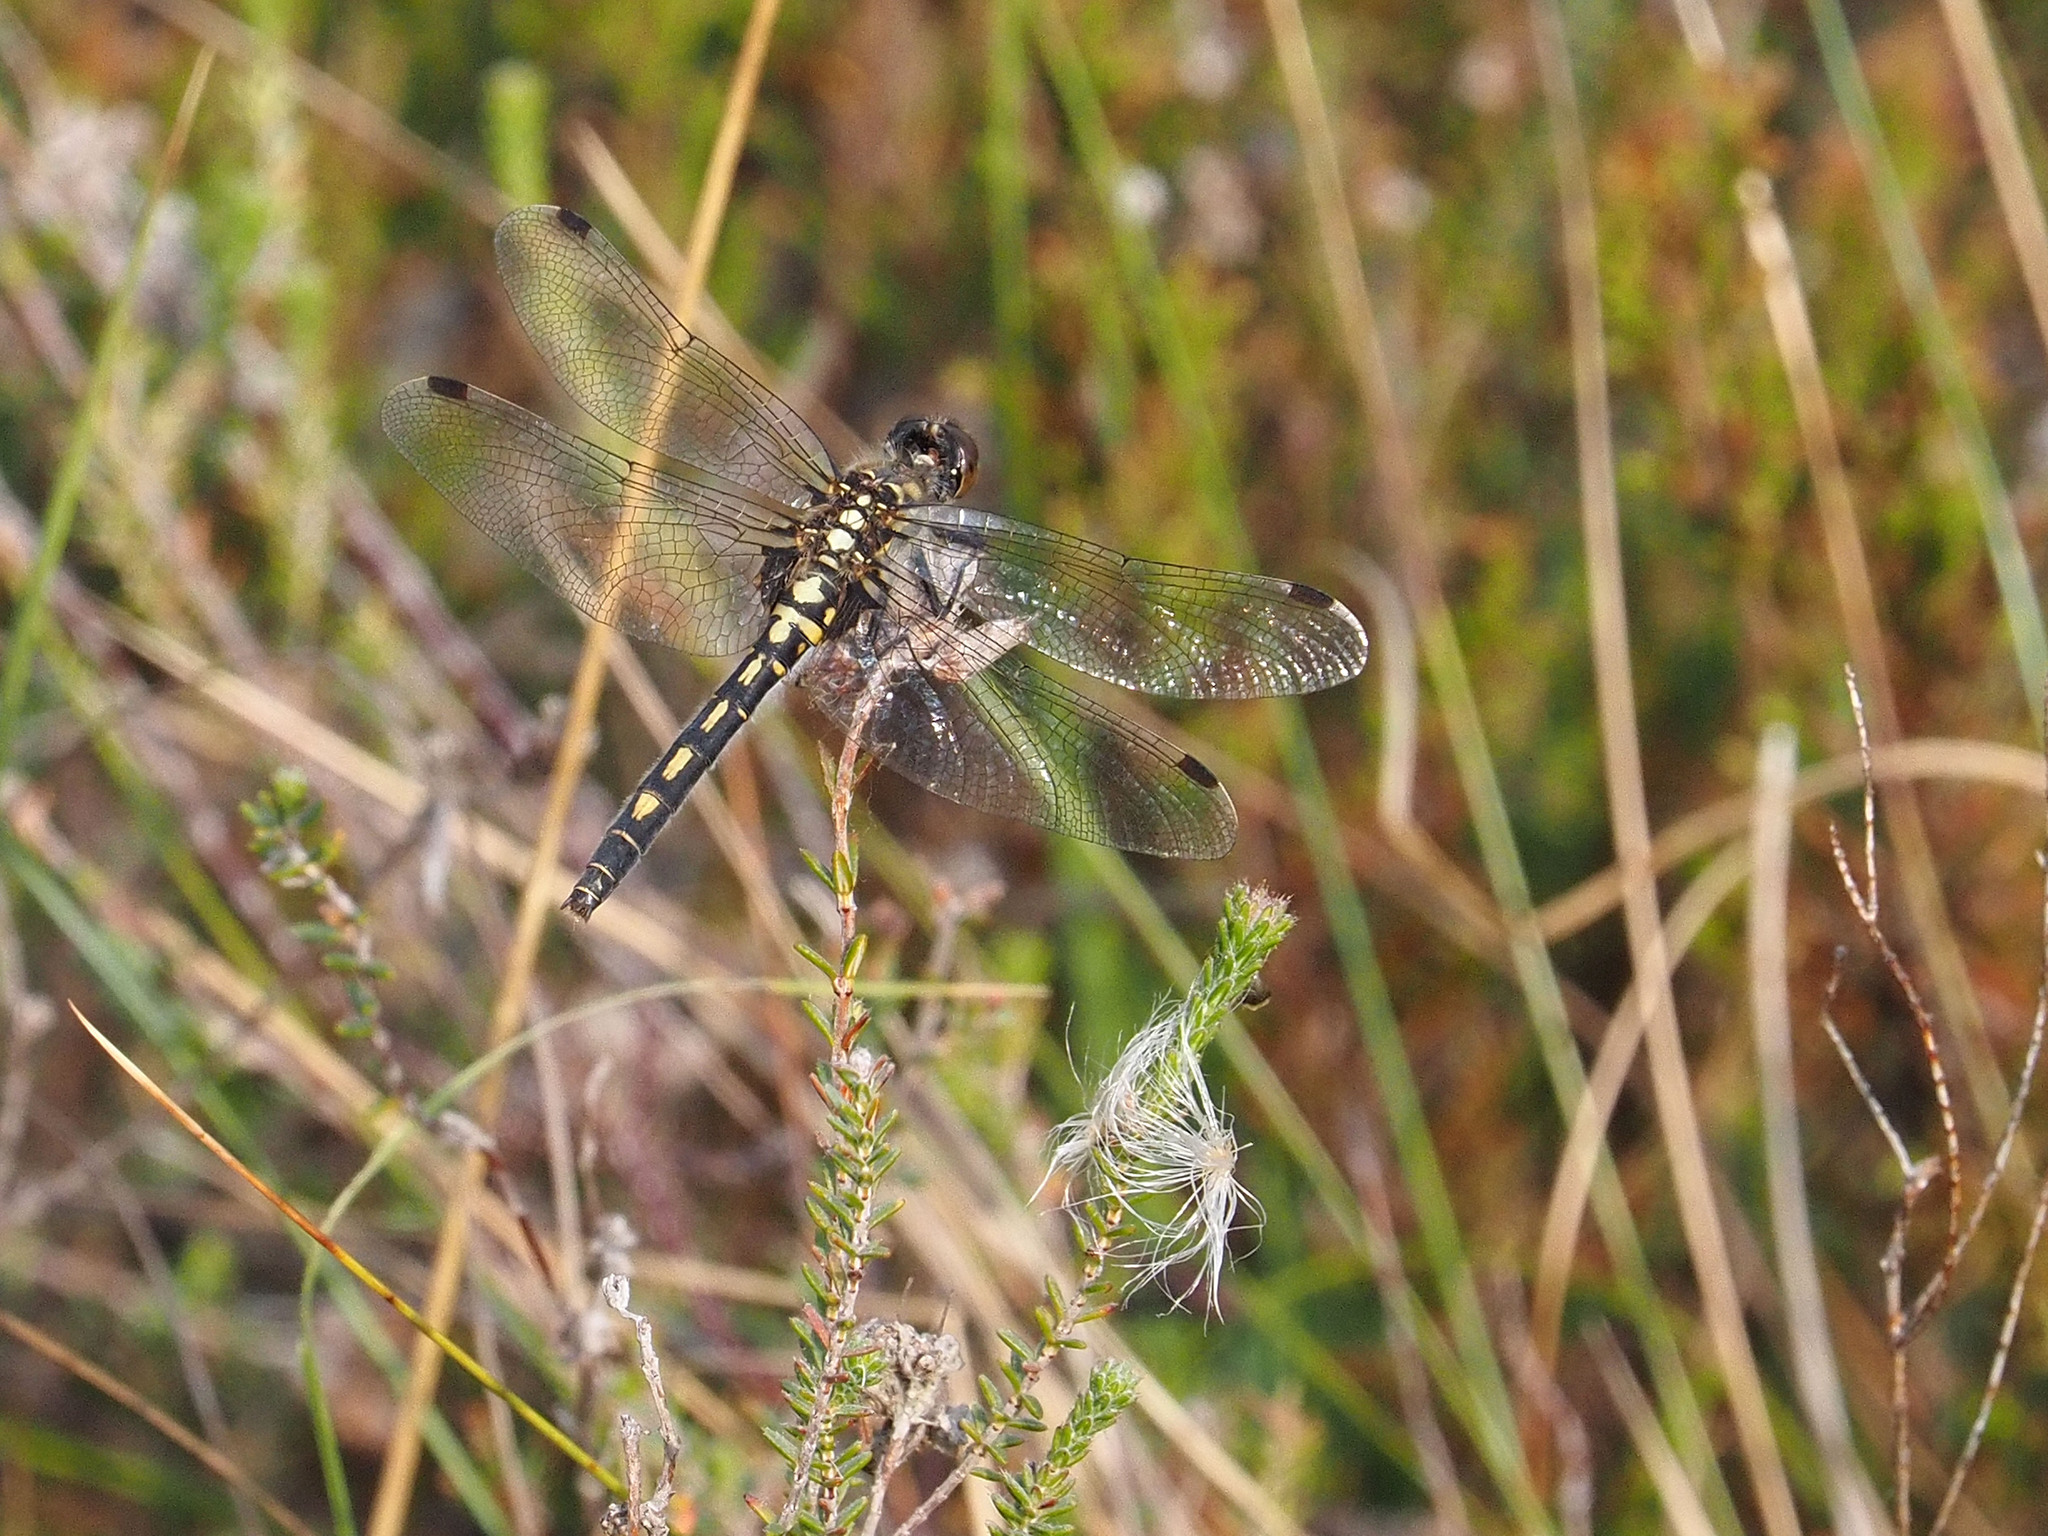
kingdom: Animalia
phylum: Arthropoda
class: Insecta
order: Odonata
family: Libellulidae
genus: Leucorrhinia
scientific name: Leucorrhinia dubia
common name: White-faced darter
